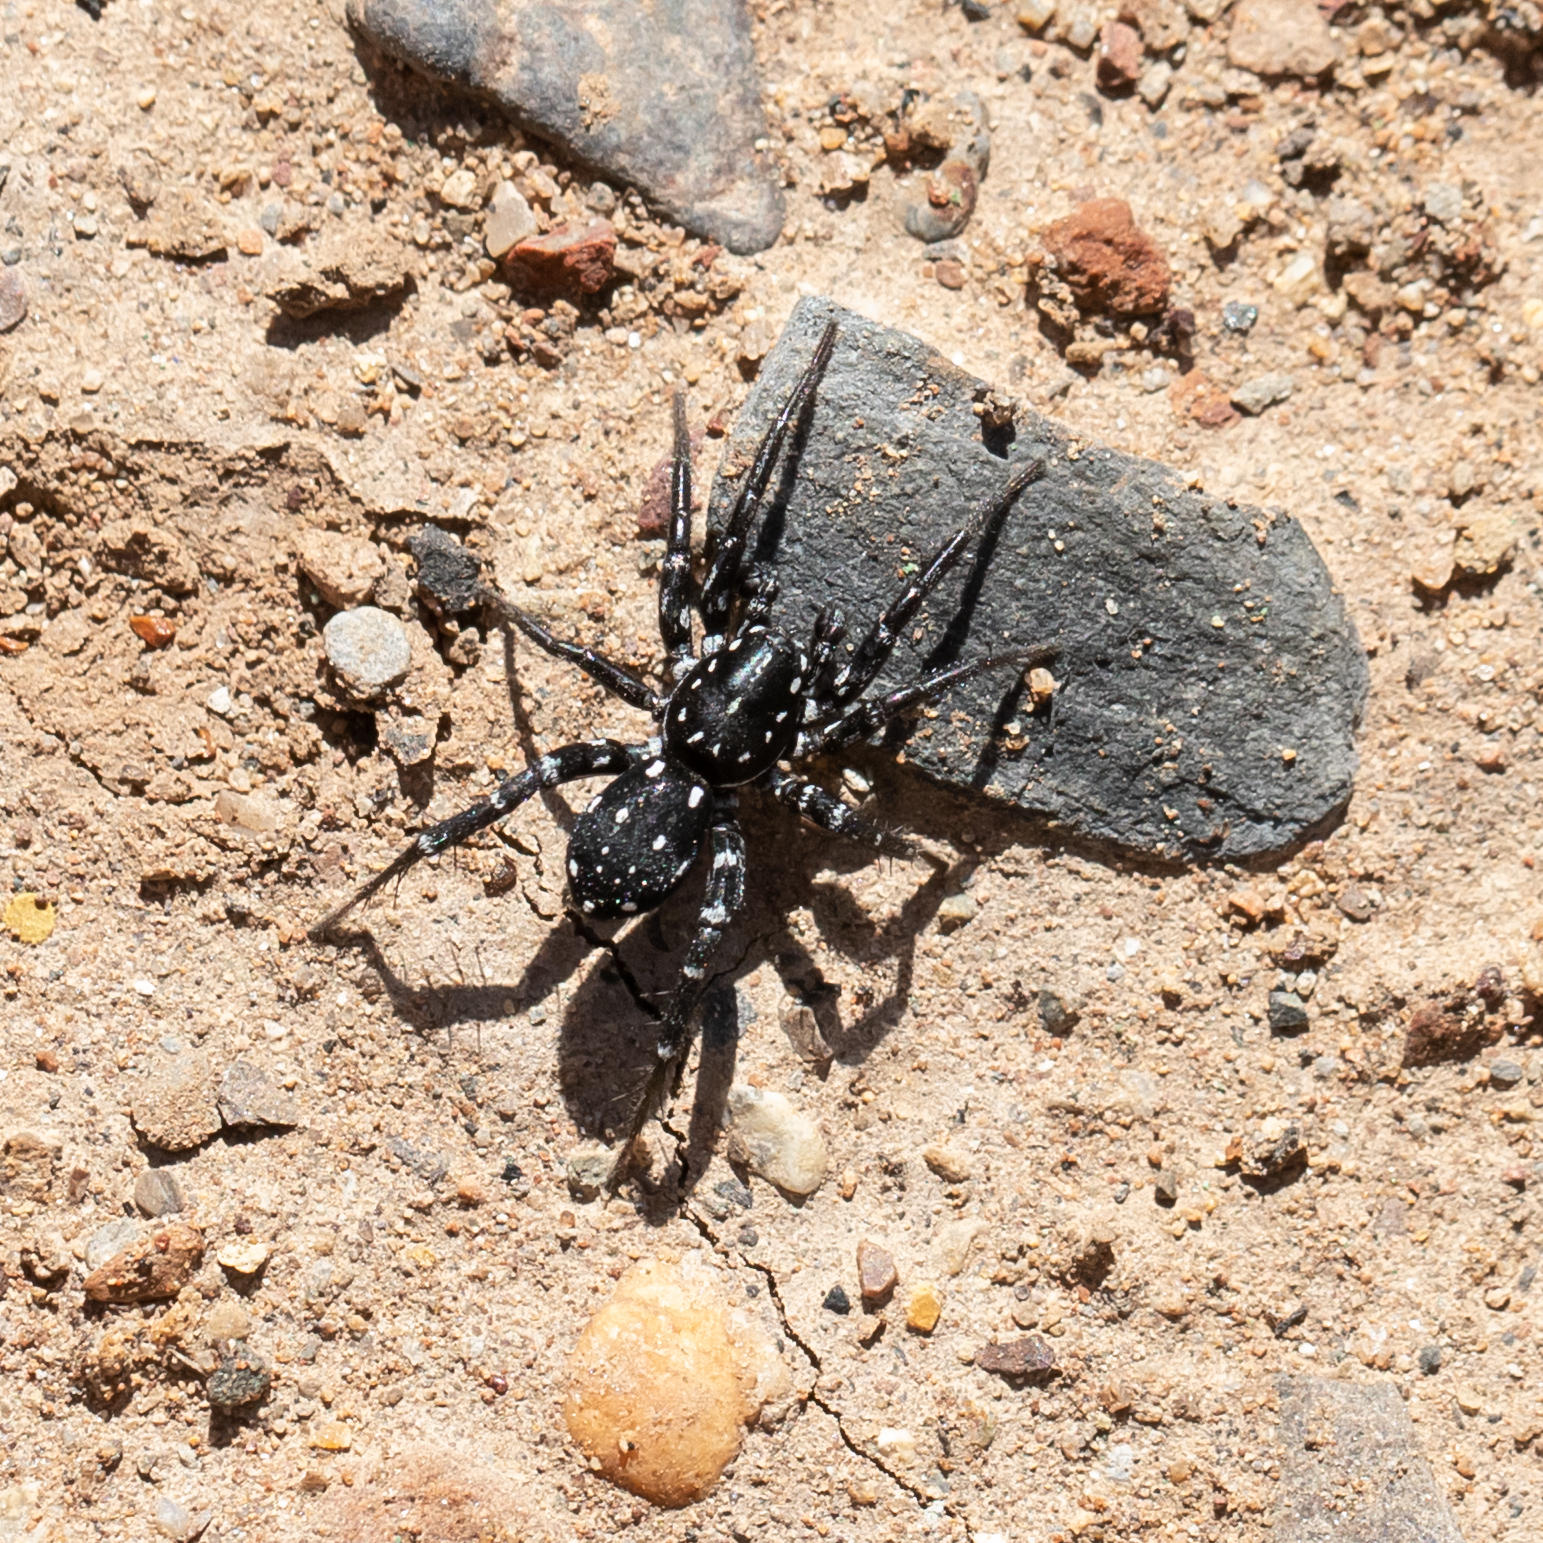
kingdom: Animalia
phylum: Arthropoda
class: Arachnida
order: Araneae
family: Corinnidae
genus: Nyssus
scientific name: Nyssus albopunctatus
